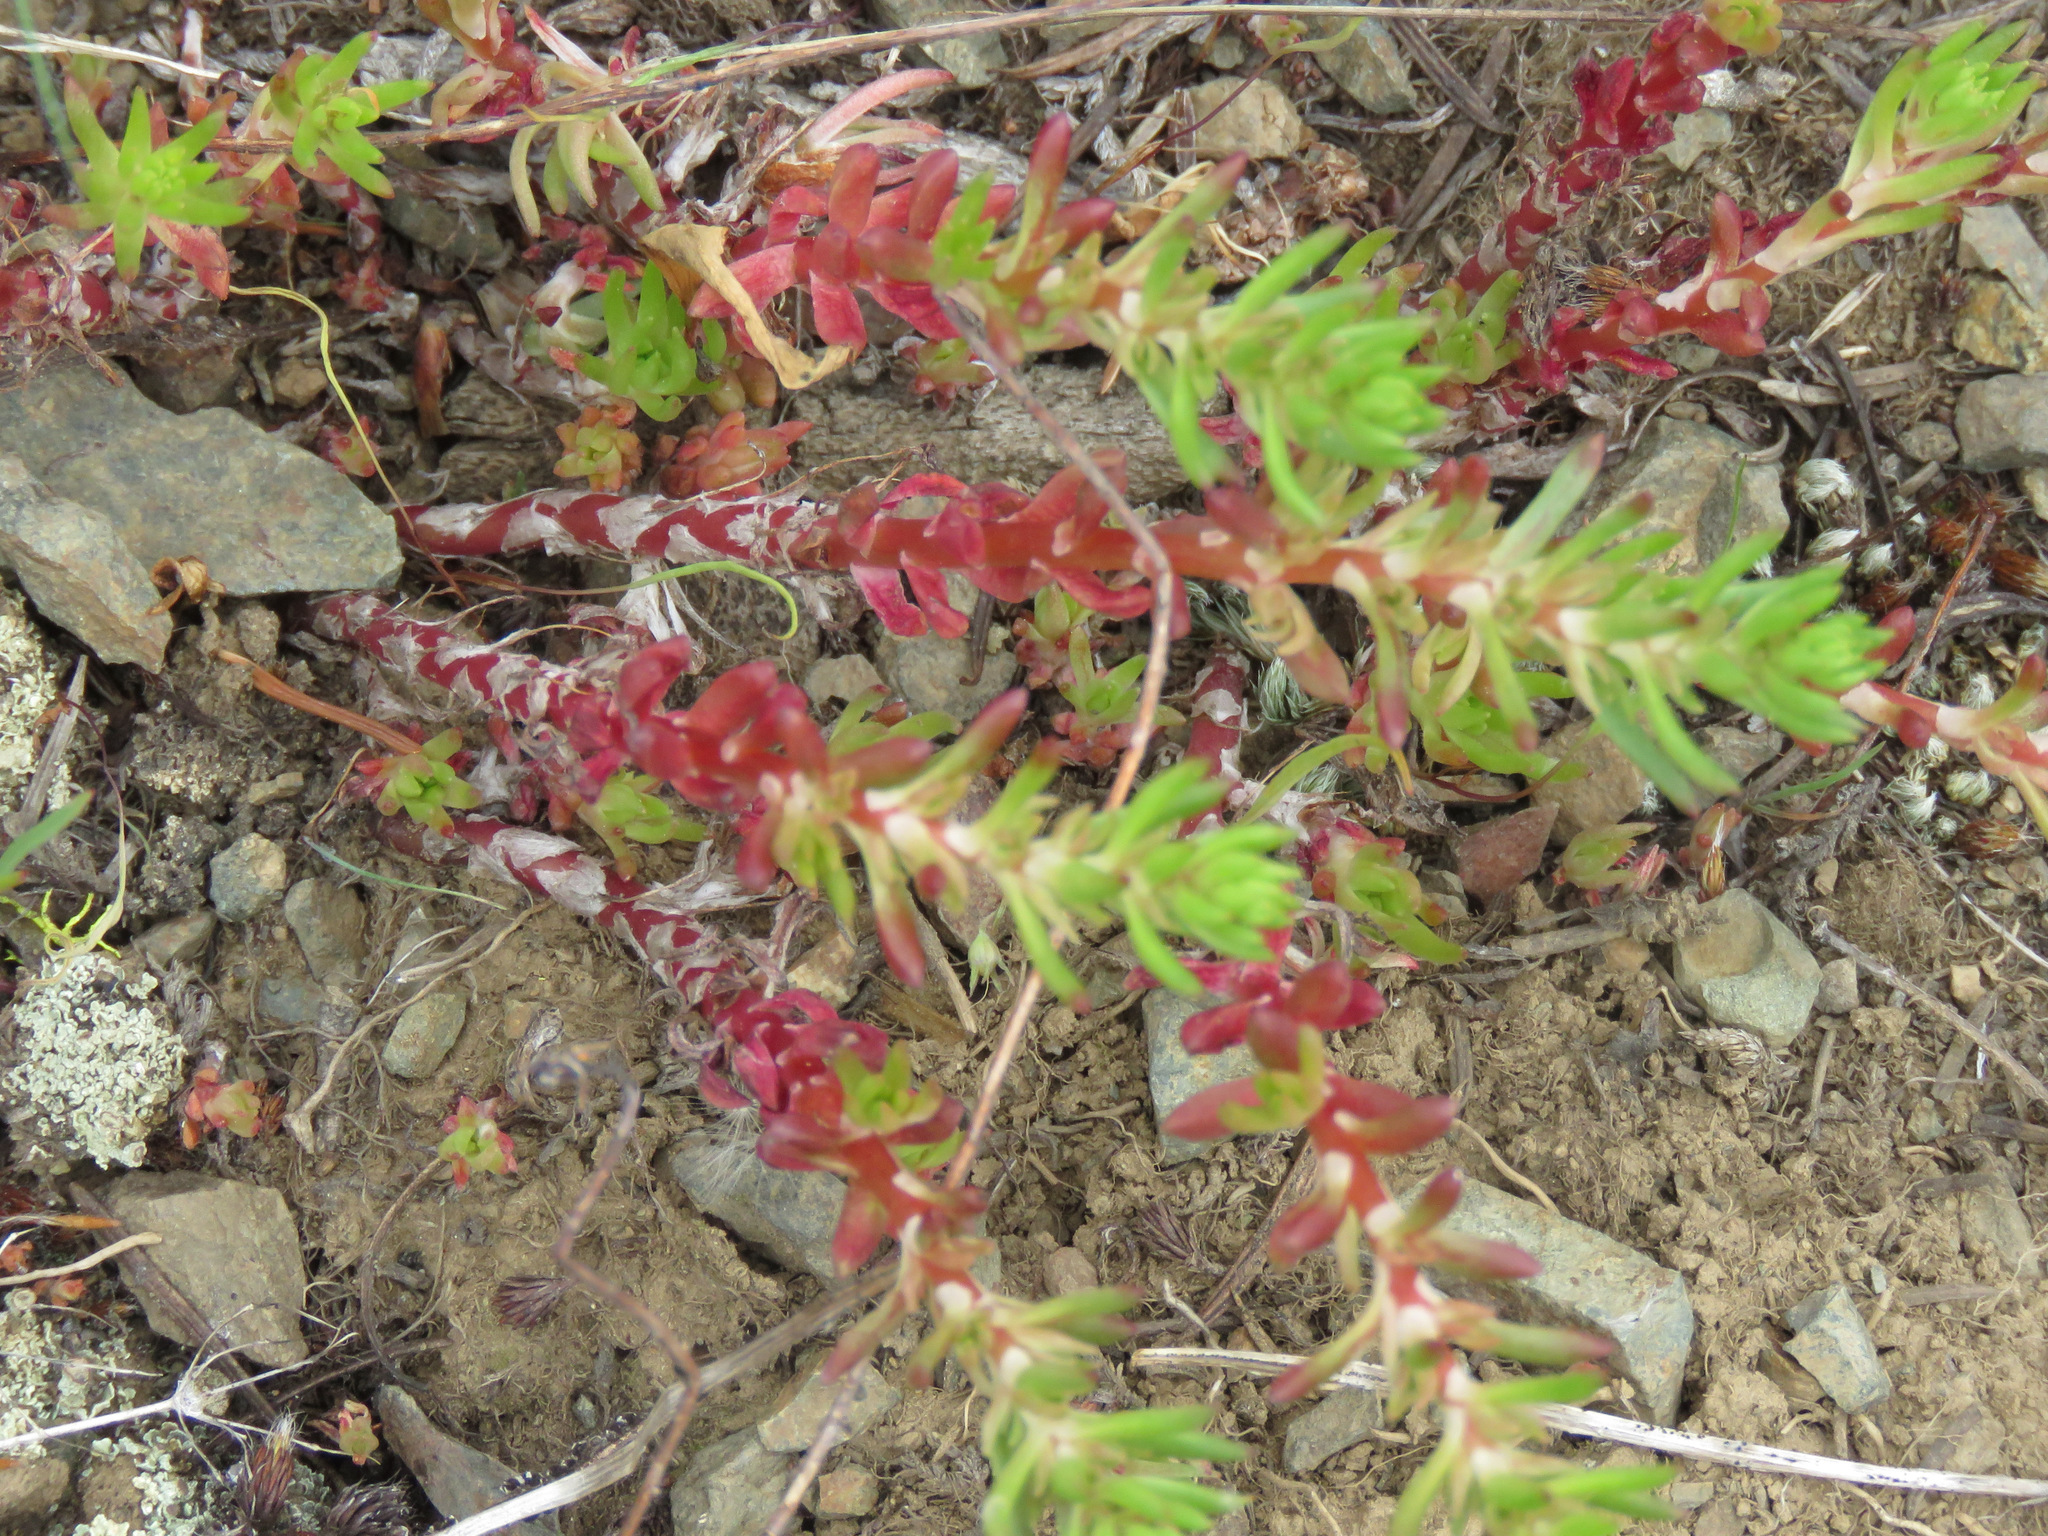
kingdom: Plantae
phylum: Tracheophyta
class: Magnoliopsida
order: Saxifragales
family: Crassulaceae
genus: Sedum
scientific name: Sedum stenopetalum
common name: Narrow-petaled stonecrop
